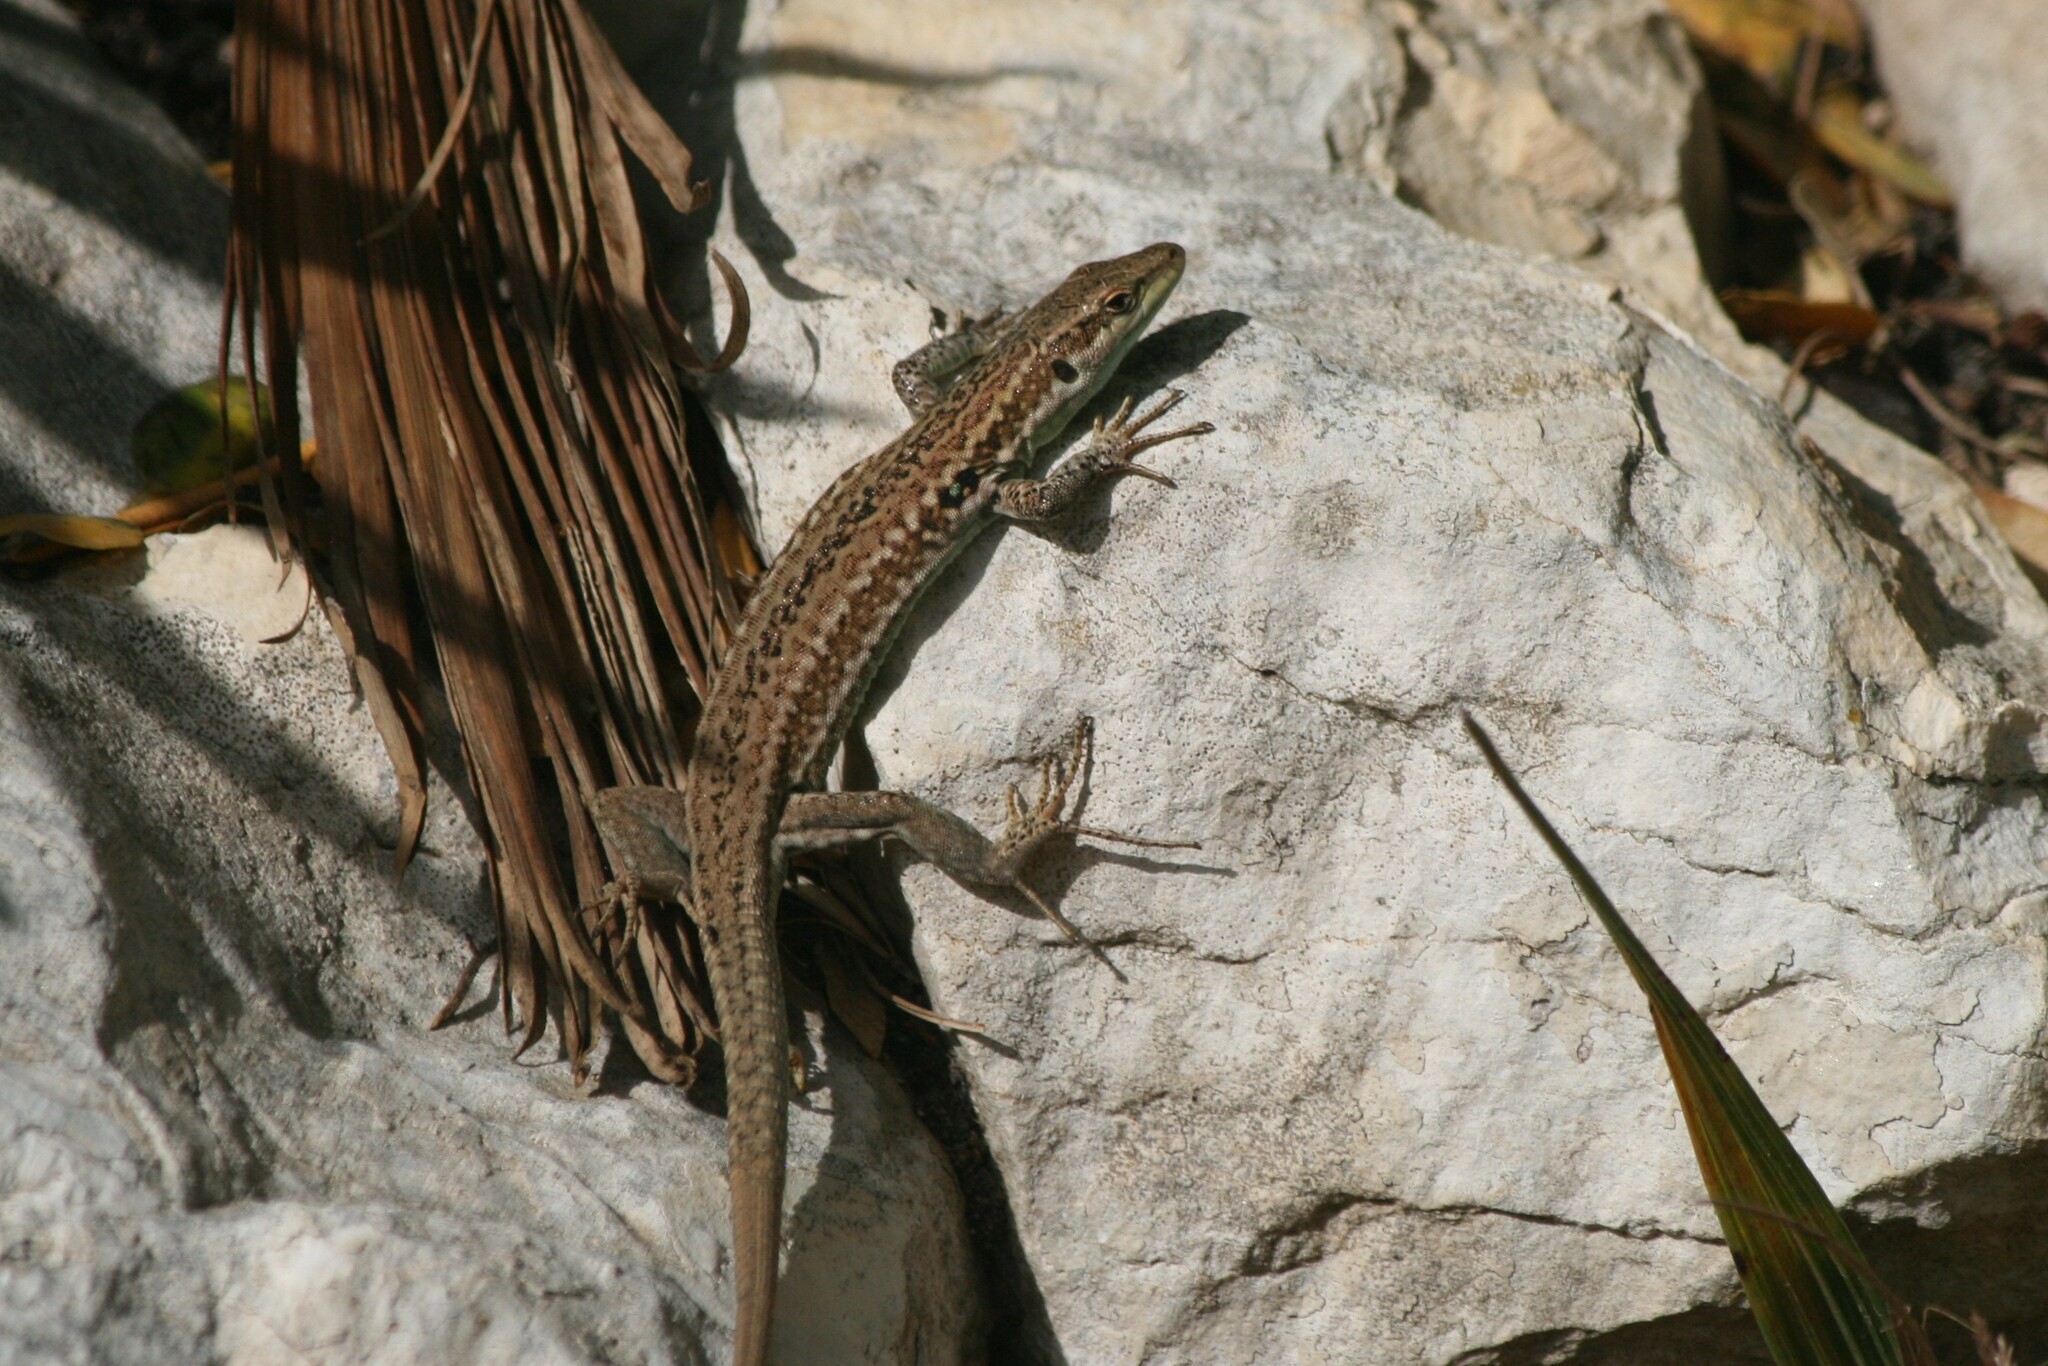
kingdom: Animalia
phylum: Chordata
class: Squamata
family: Lacertidae
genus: Podarcis
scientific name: Podarcis siculus
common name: Italian wall lizard
